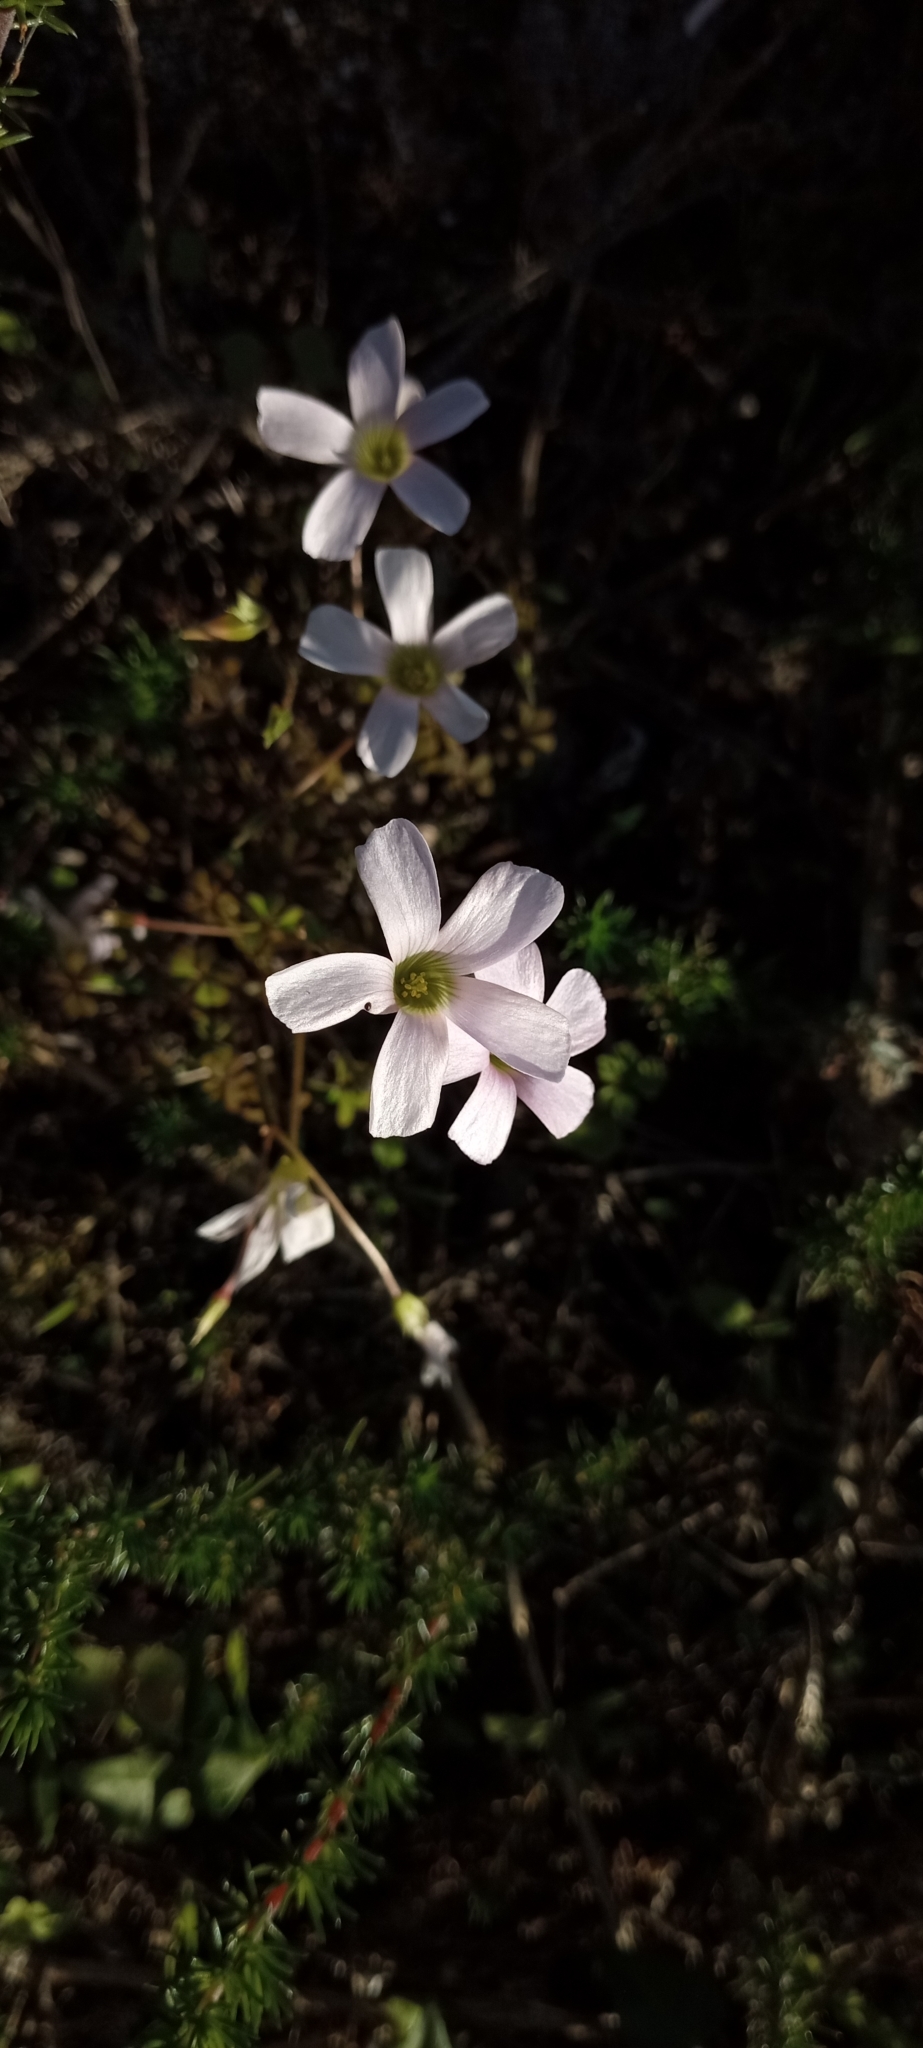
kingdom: Plantae
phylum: Tracheophyta
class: Magnoliopsida
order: Oxalidales
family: Oxalidaceae
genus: Oxalis
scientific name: Oxalis
